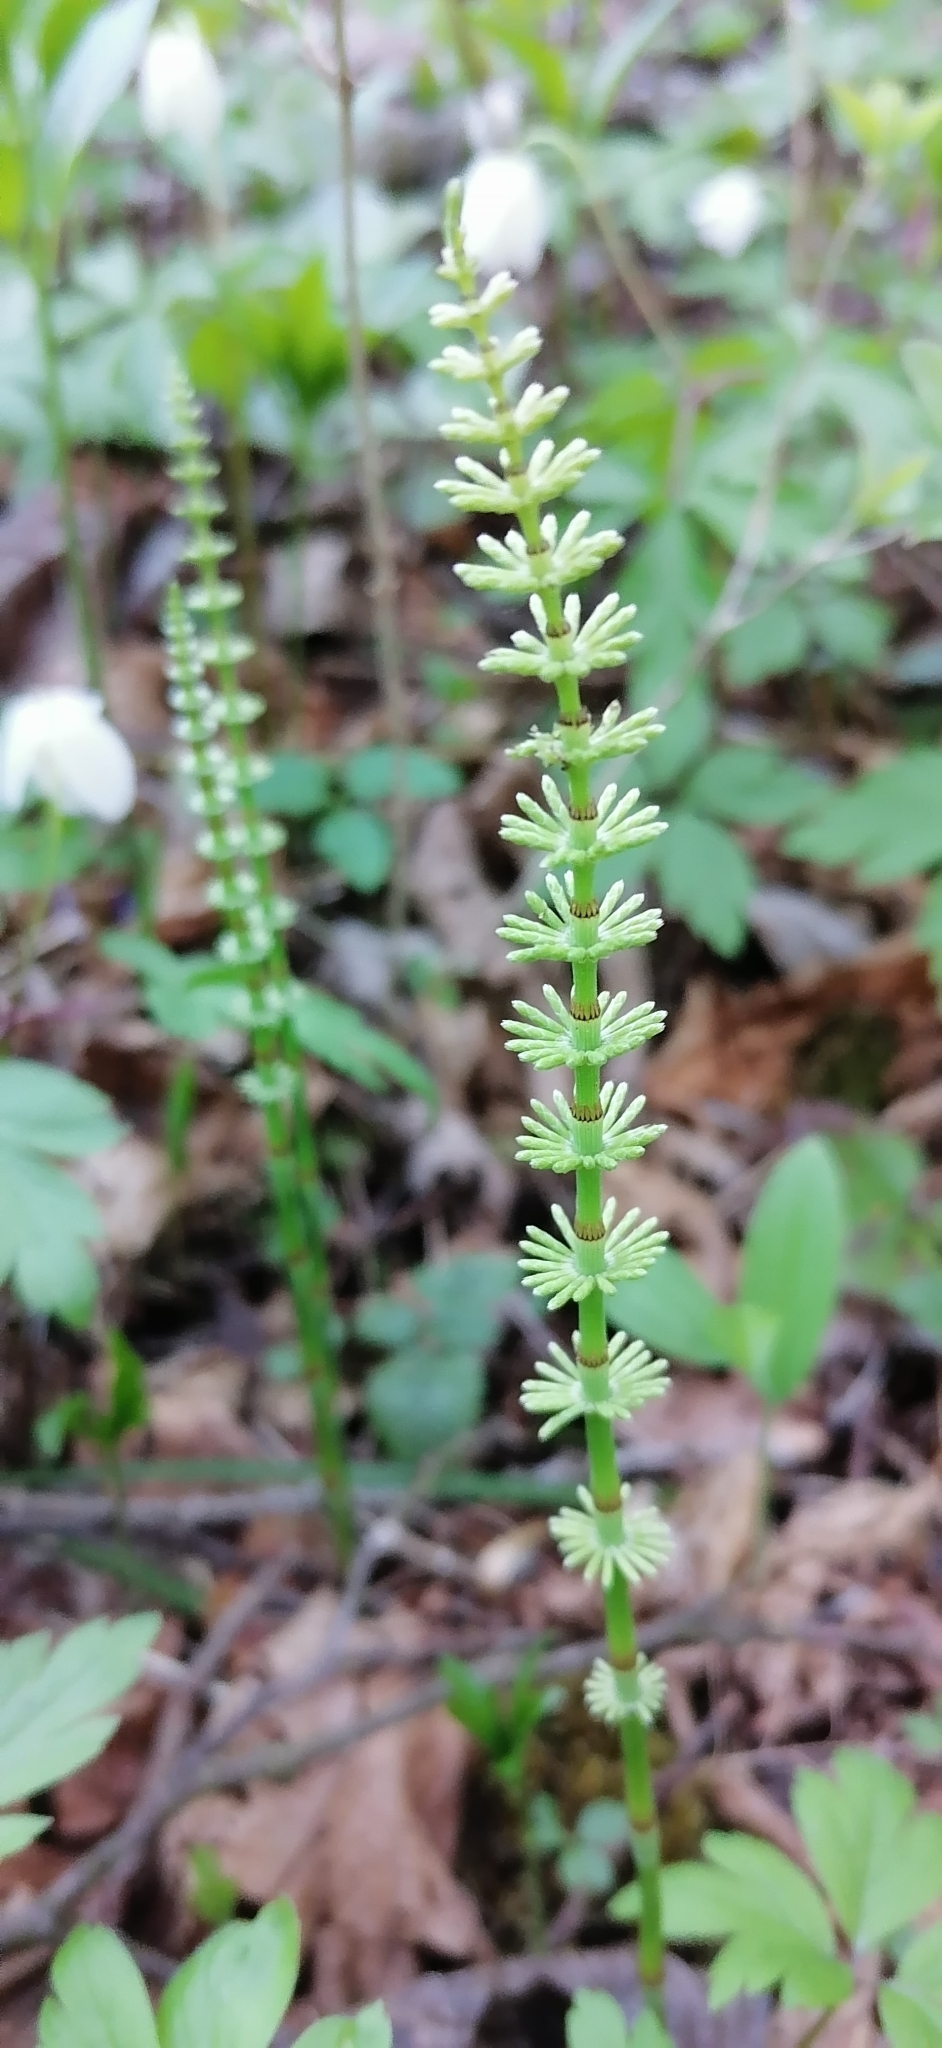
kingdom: Plantae
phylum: Tracheophyta
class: Polypodiopsida
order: Equisetales
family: Equisetaceae
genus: Equisetum
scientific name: Equisetum pratense
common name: Meadow horsetail
